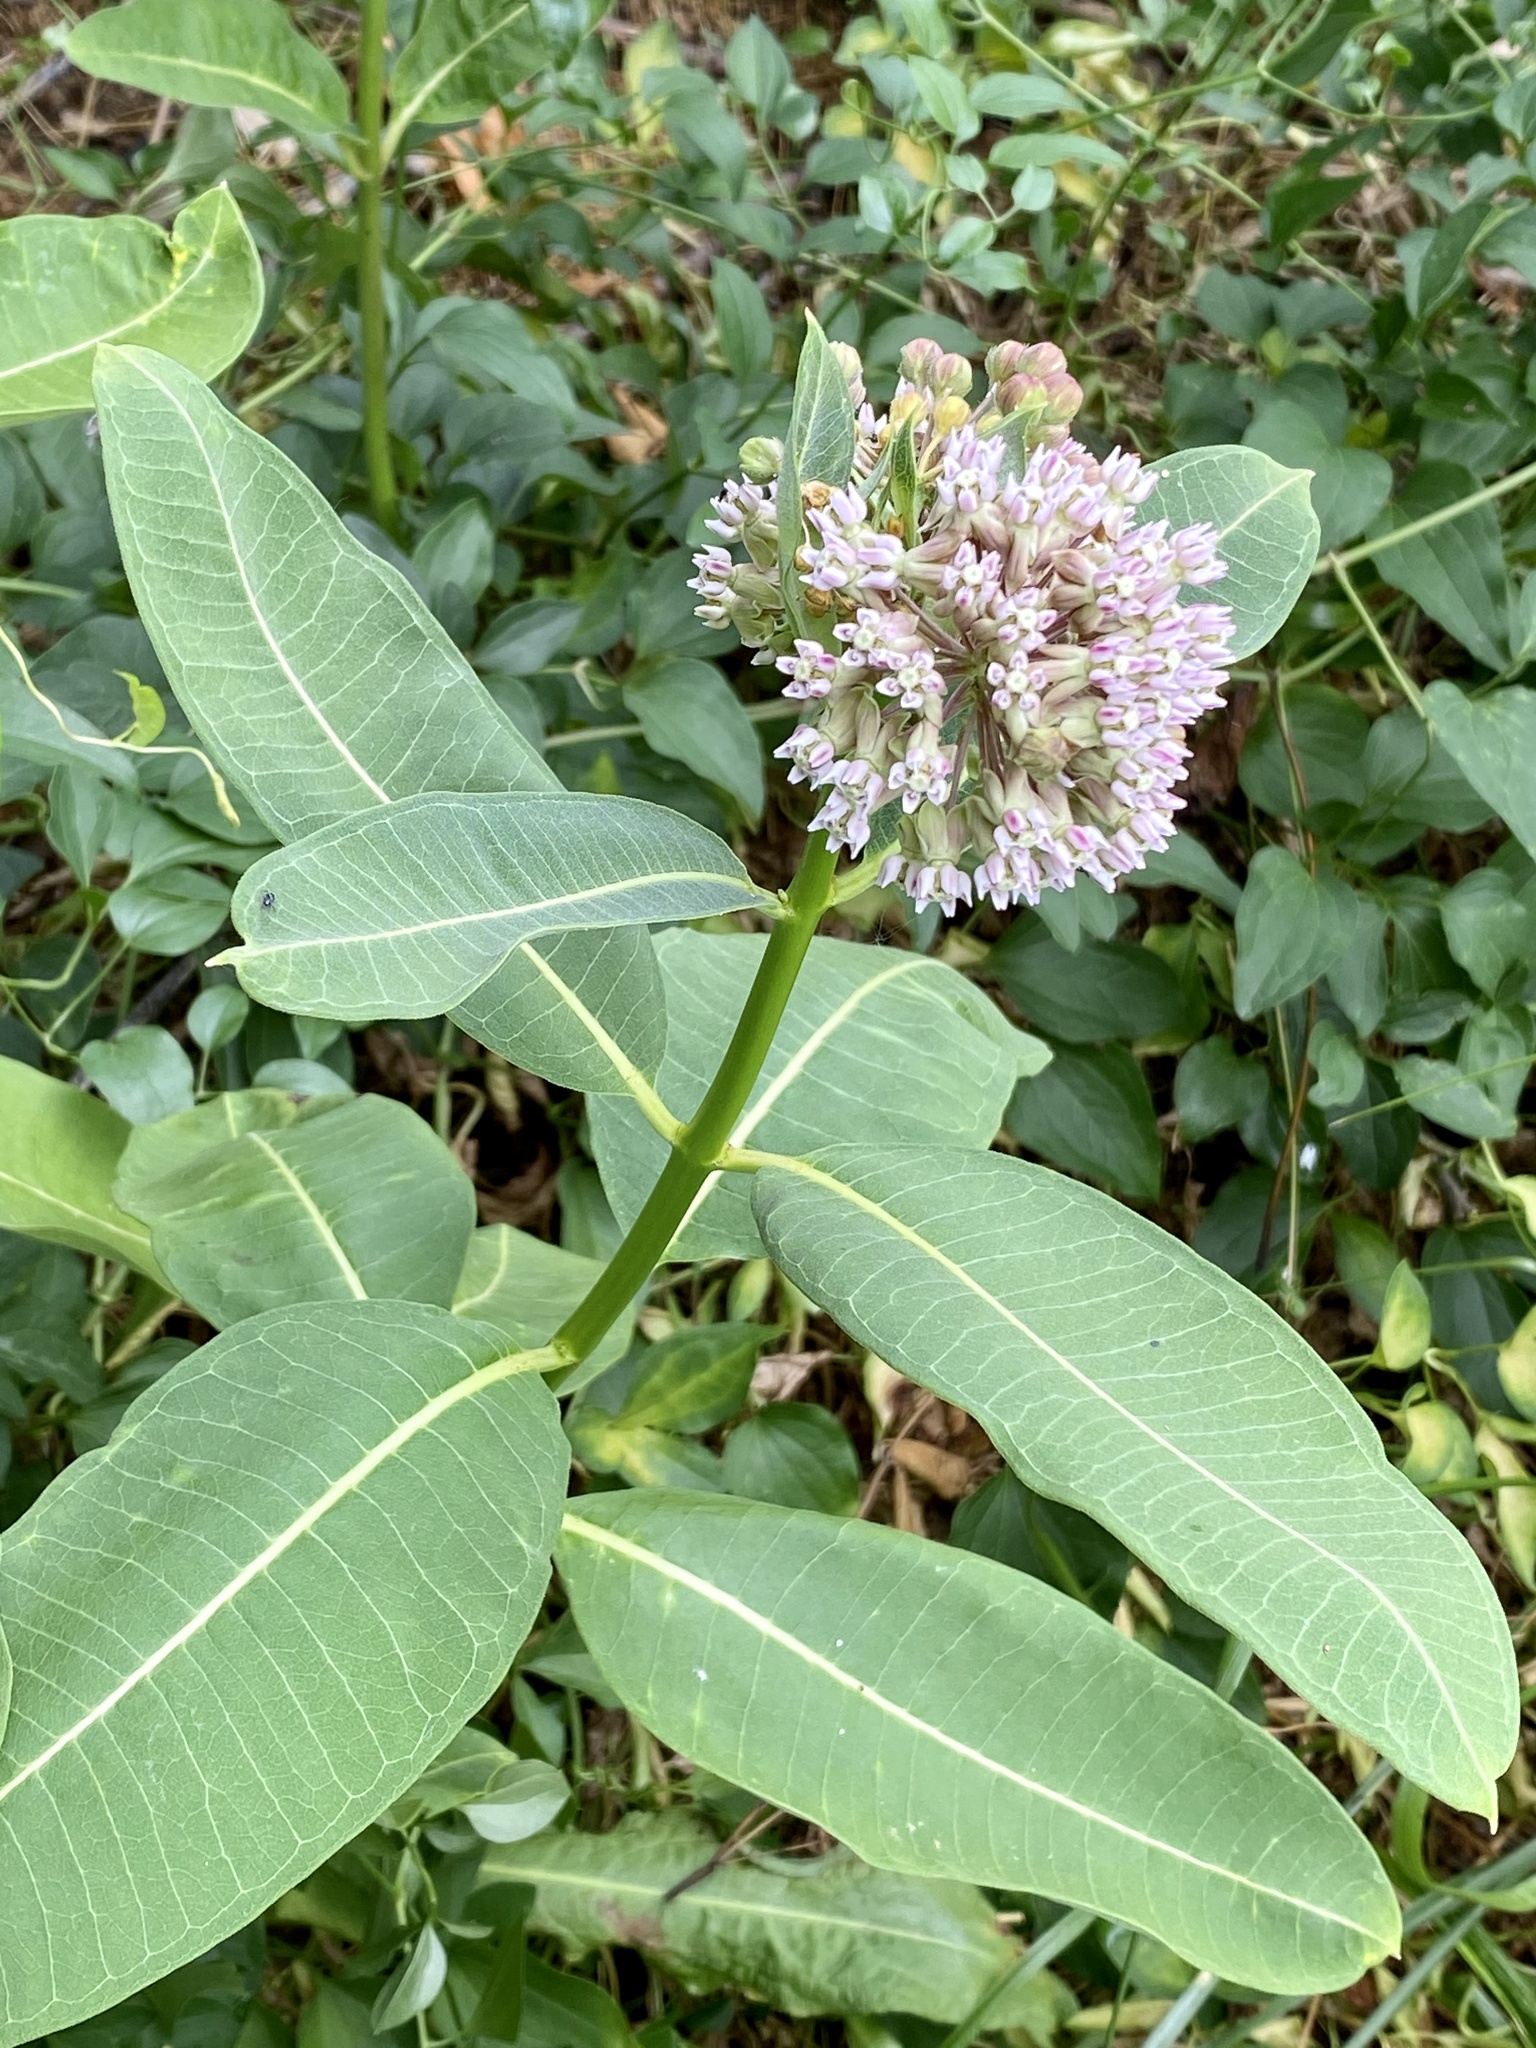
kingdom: Plantae
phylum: Tracheophyta
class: Magnoliopsida
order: Gentianales
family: Apocynaceae
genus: Asclepias
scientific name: Asclepias syriaca
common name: Common milkweed
